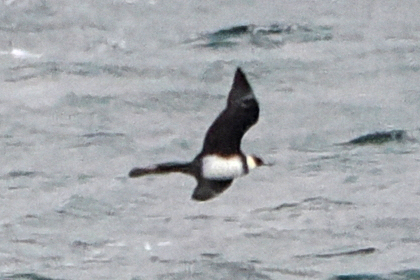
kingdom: Animalia
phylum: Chordata
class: Aves
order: Charadriiformes
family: Stercorariidae
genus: Stercorarius
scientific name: Stercorarius pomarinus
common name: Pomarine jaeger
